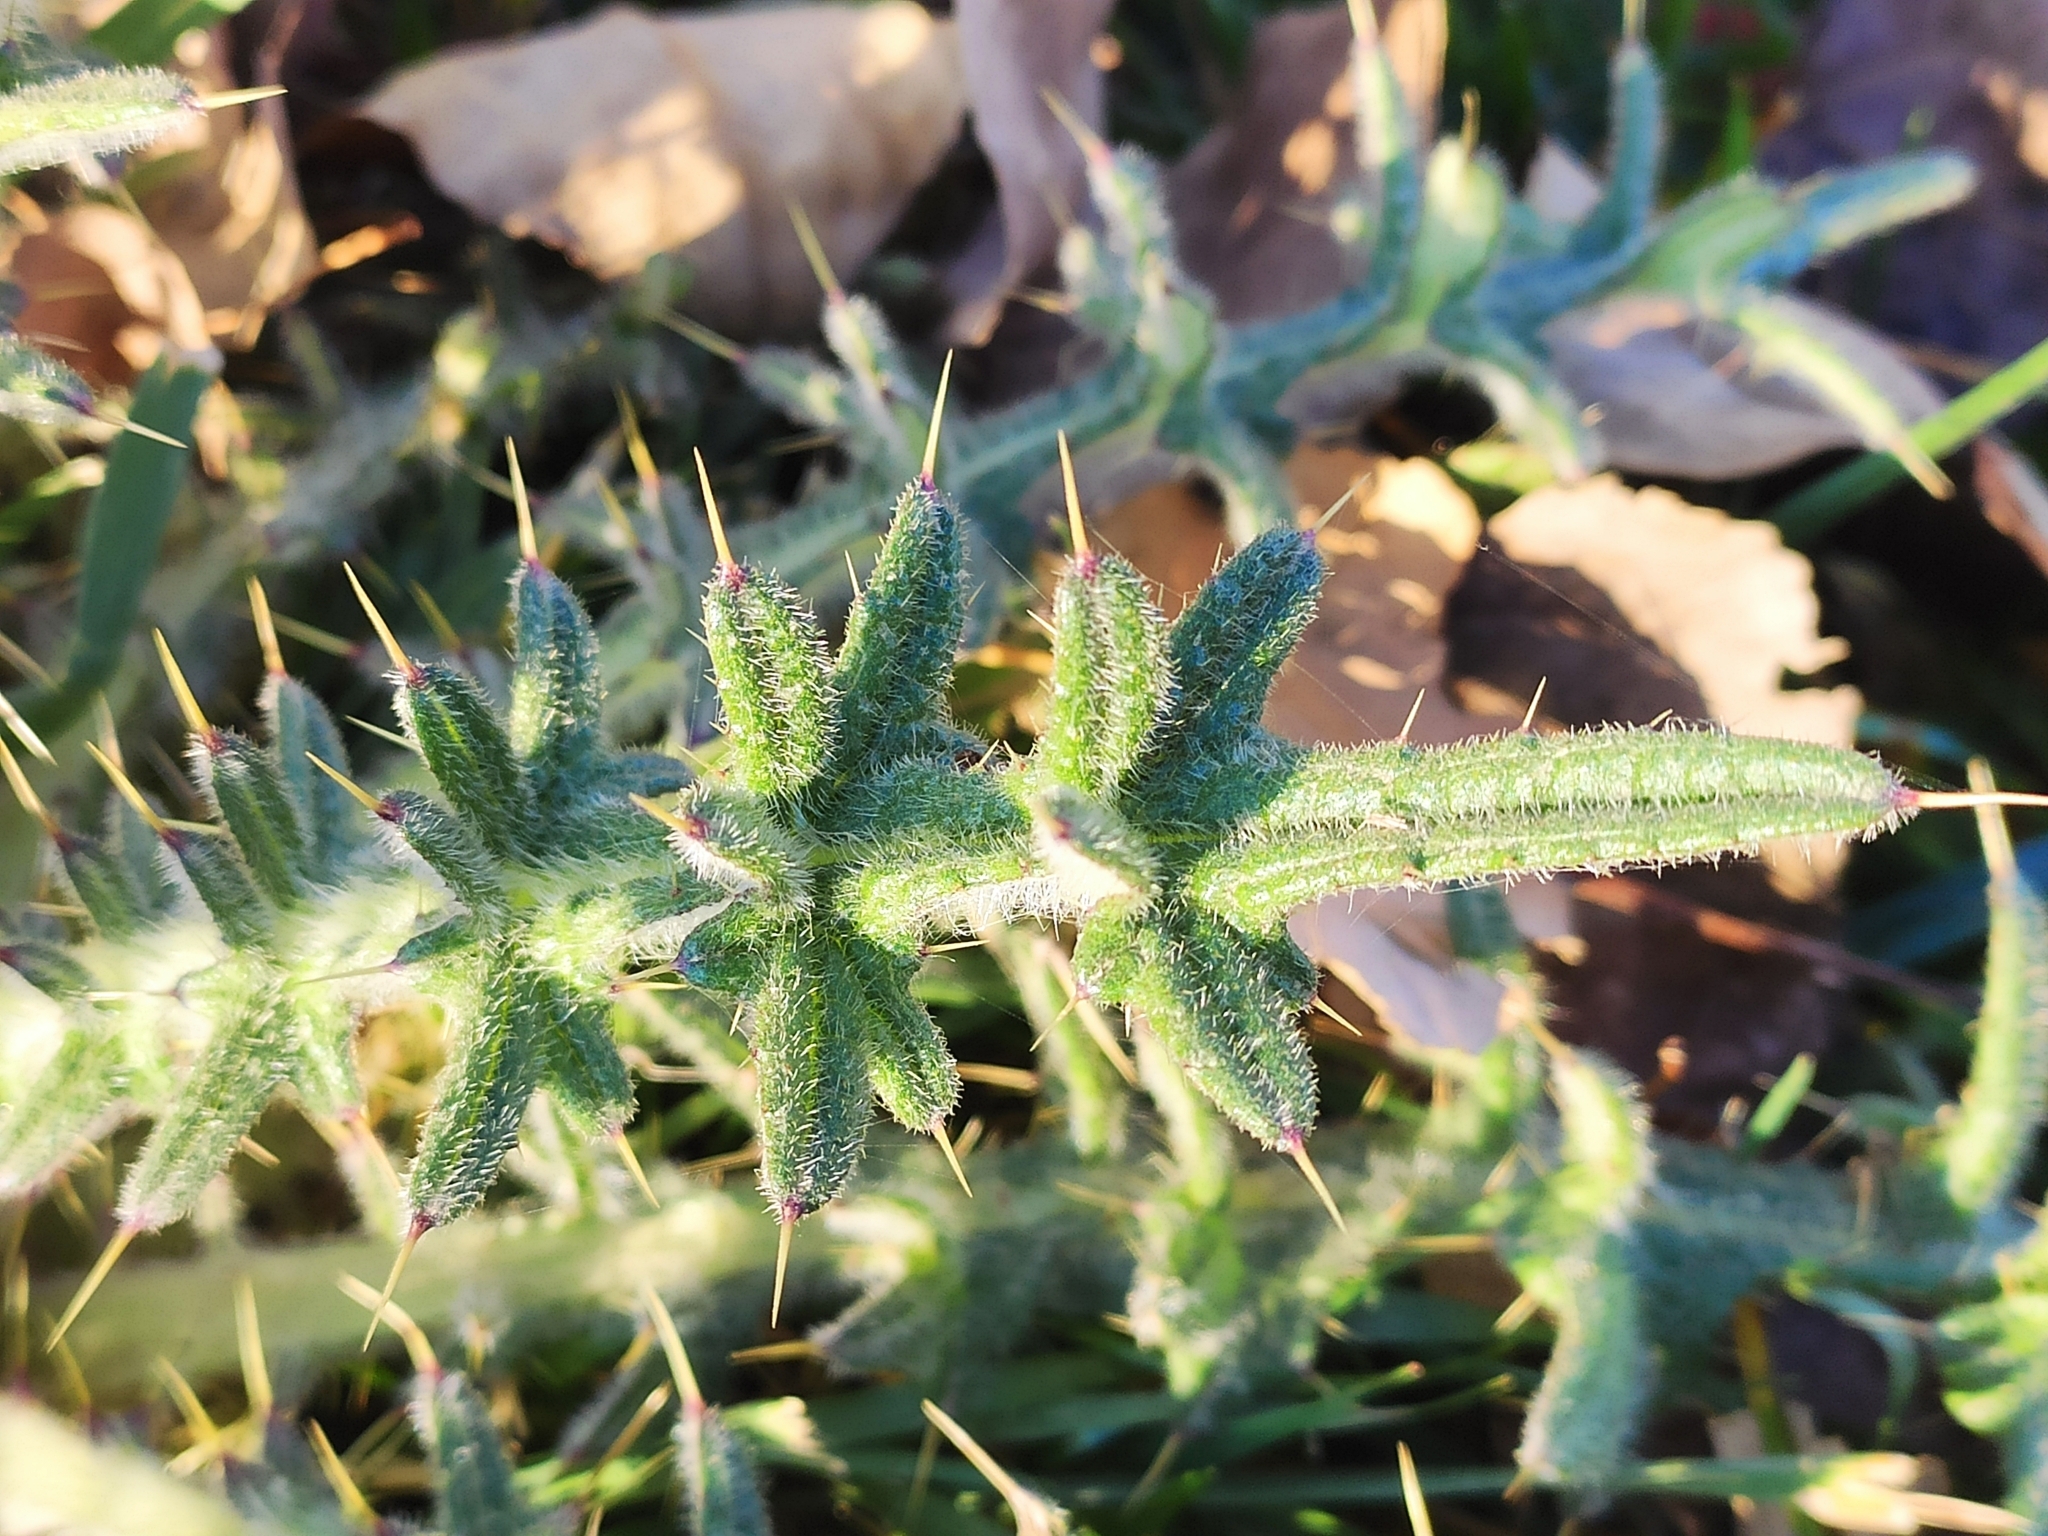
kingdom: Plantae
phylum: Tracheophyta
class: Magnoliopsida
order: Asterales
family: Asteraceae
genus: Cirsium
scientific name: Cirsium vulgare
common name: Bull thistle
